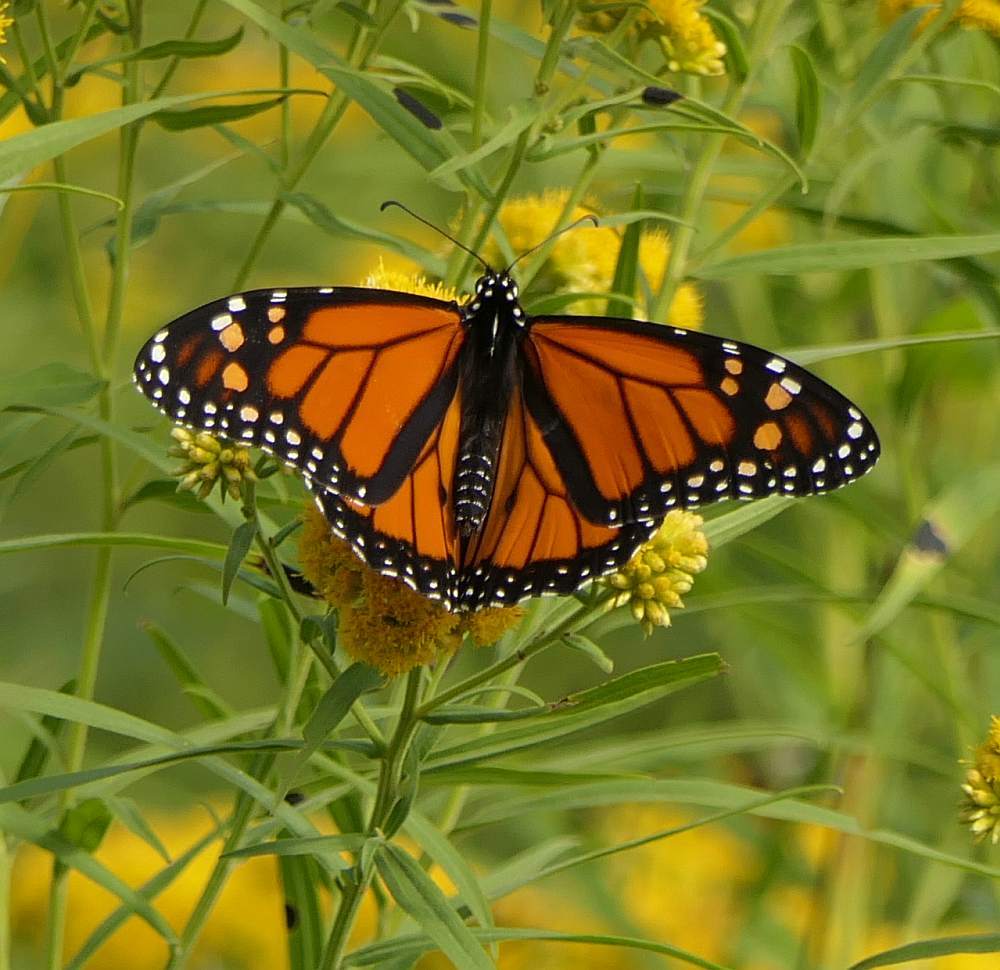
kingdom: Animalia
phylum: Arthropoda
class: Insecta
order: Lepidoptera
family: Nymphalidae
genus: Danaus
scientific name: Danaus plexippus
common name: Monarch
